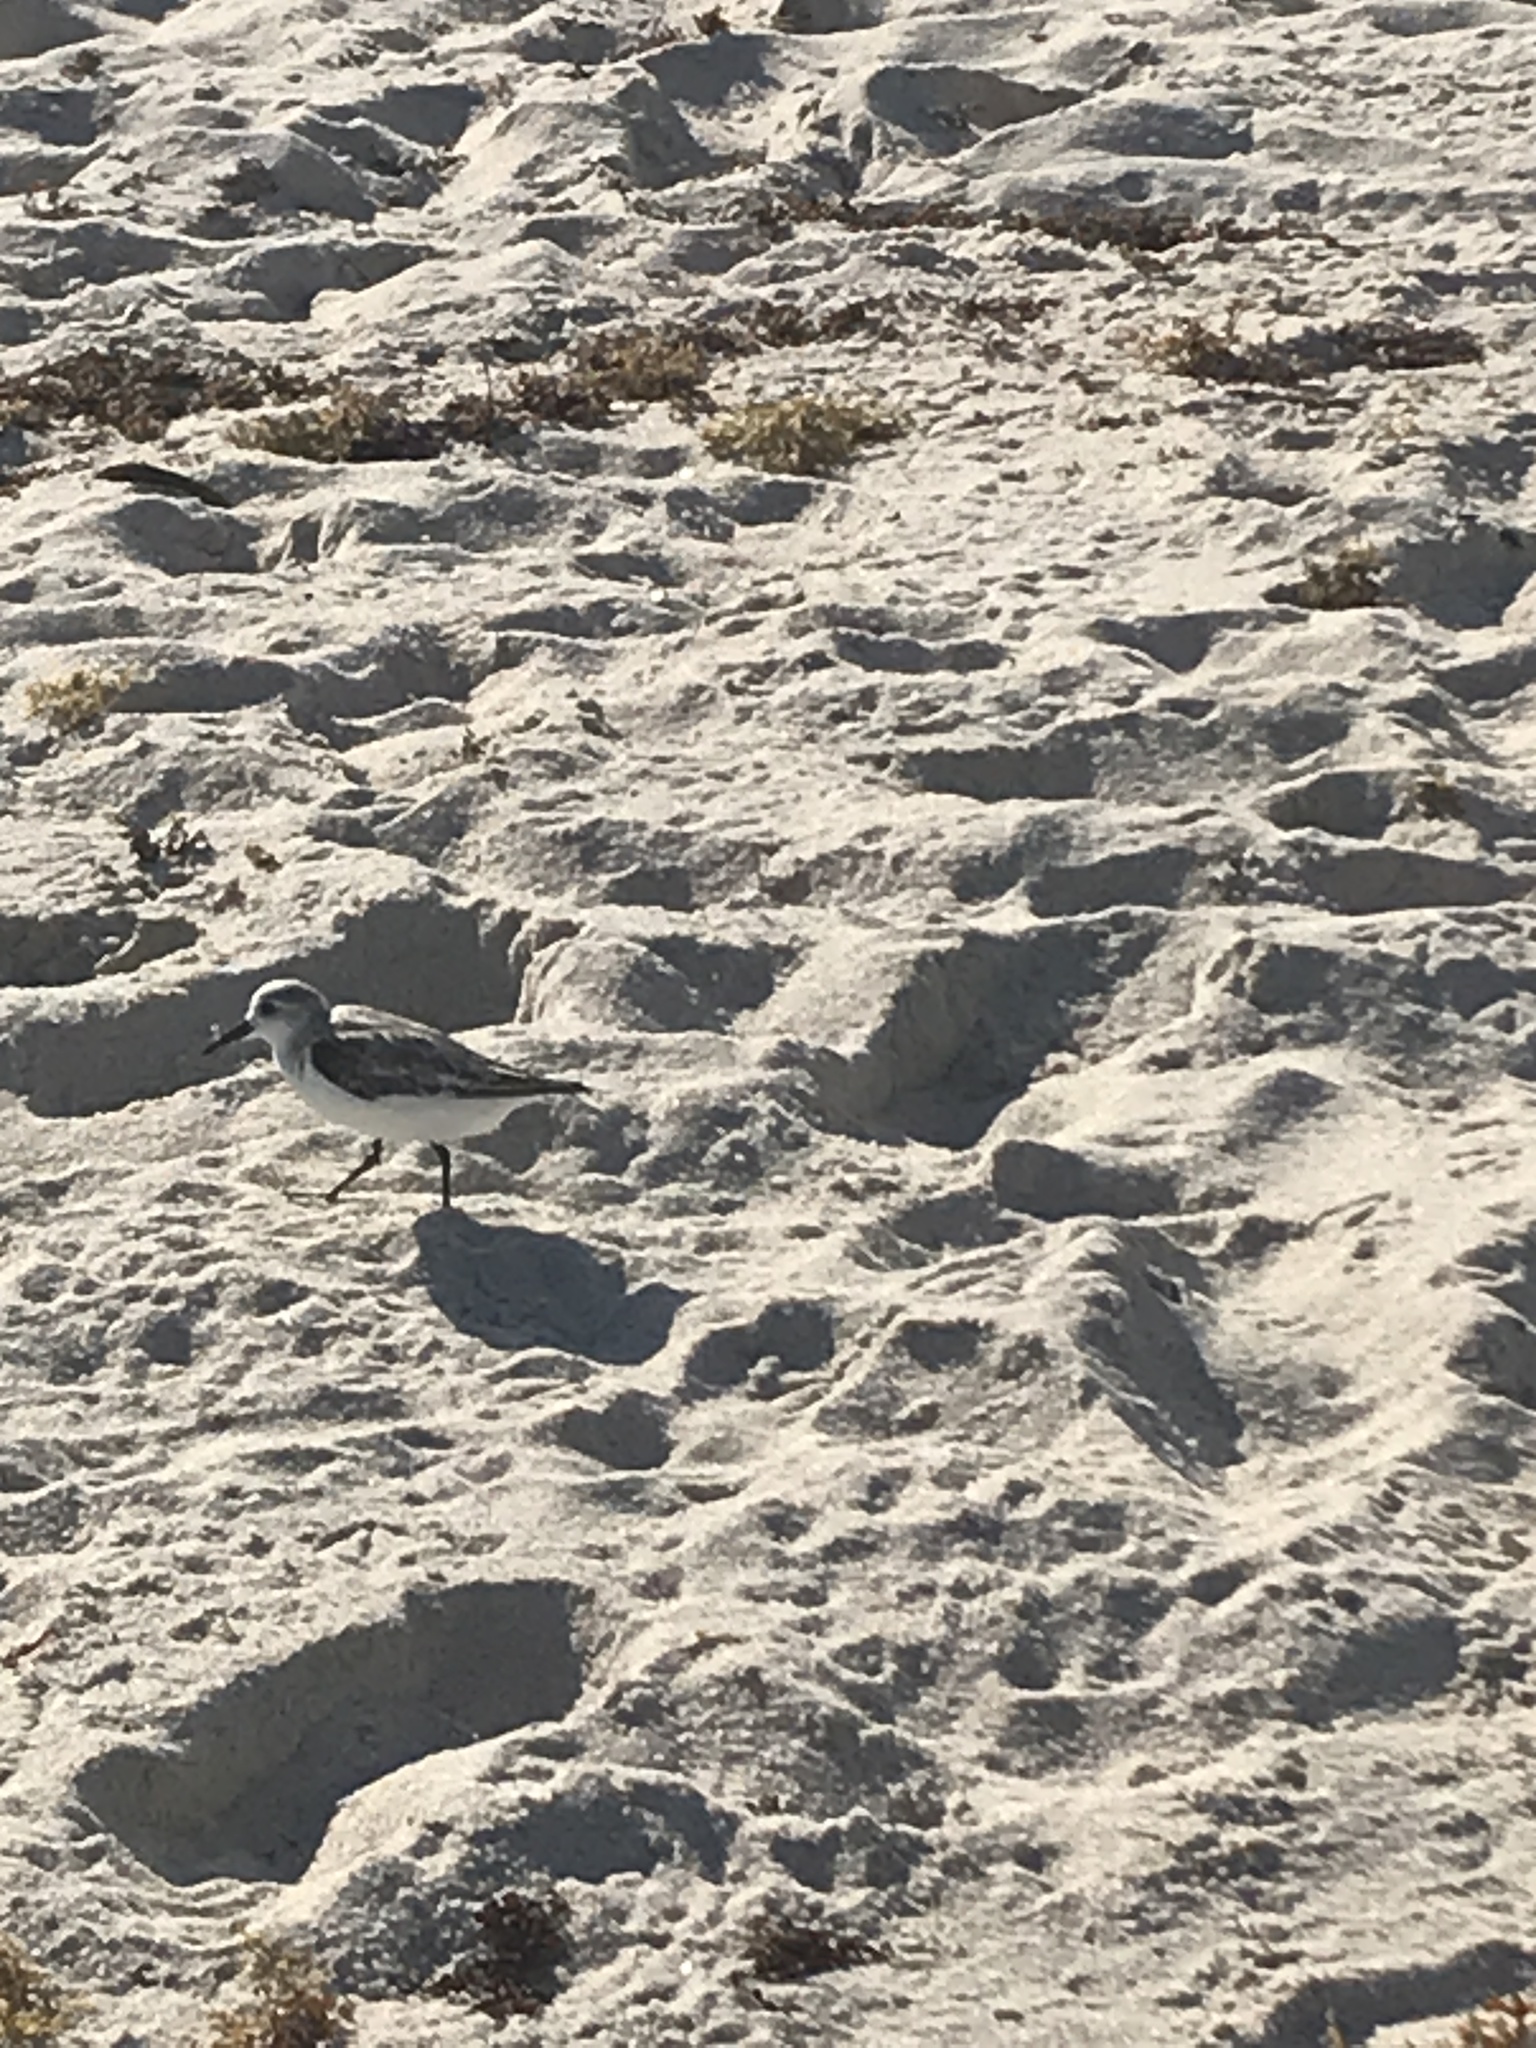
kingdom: Animalia
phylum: Chordata
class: Aves
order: Charadriiformes
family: Scolopacidae
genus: Calidris
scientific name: Calidris alba
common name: Sanderling
